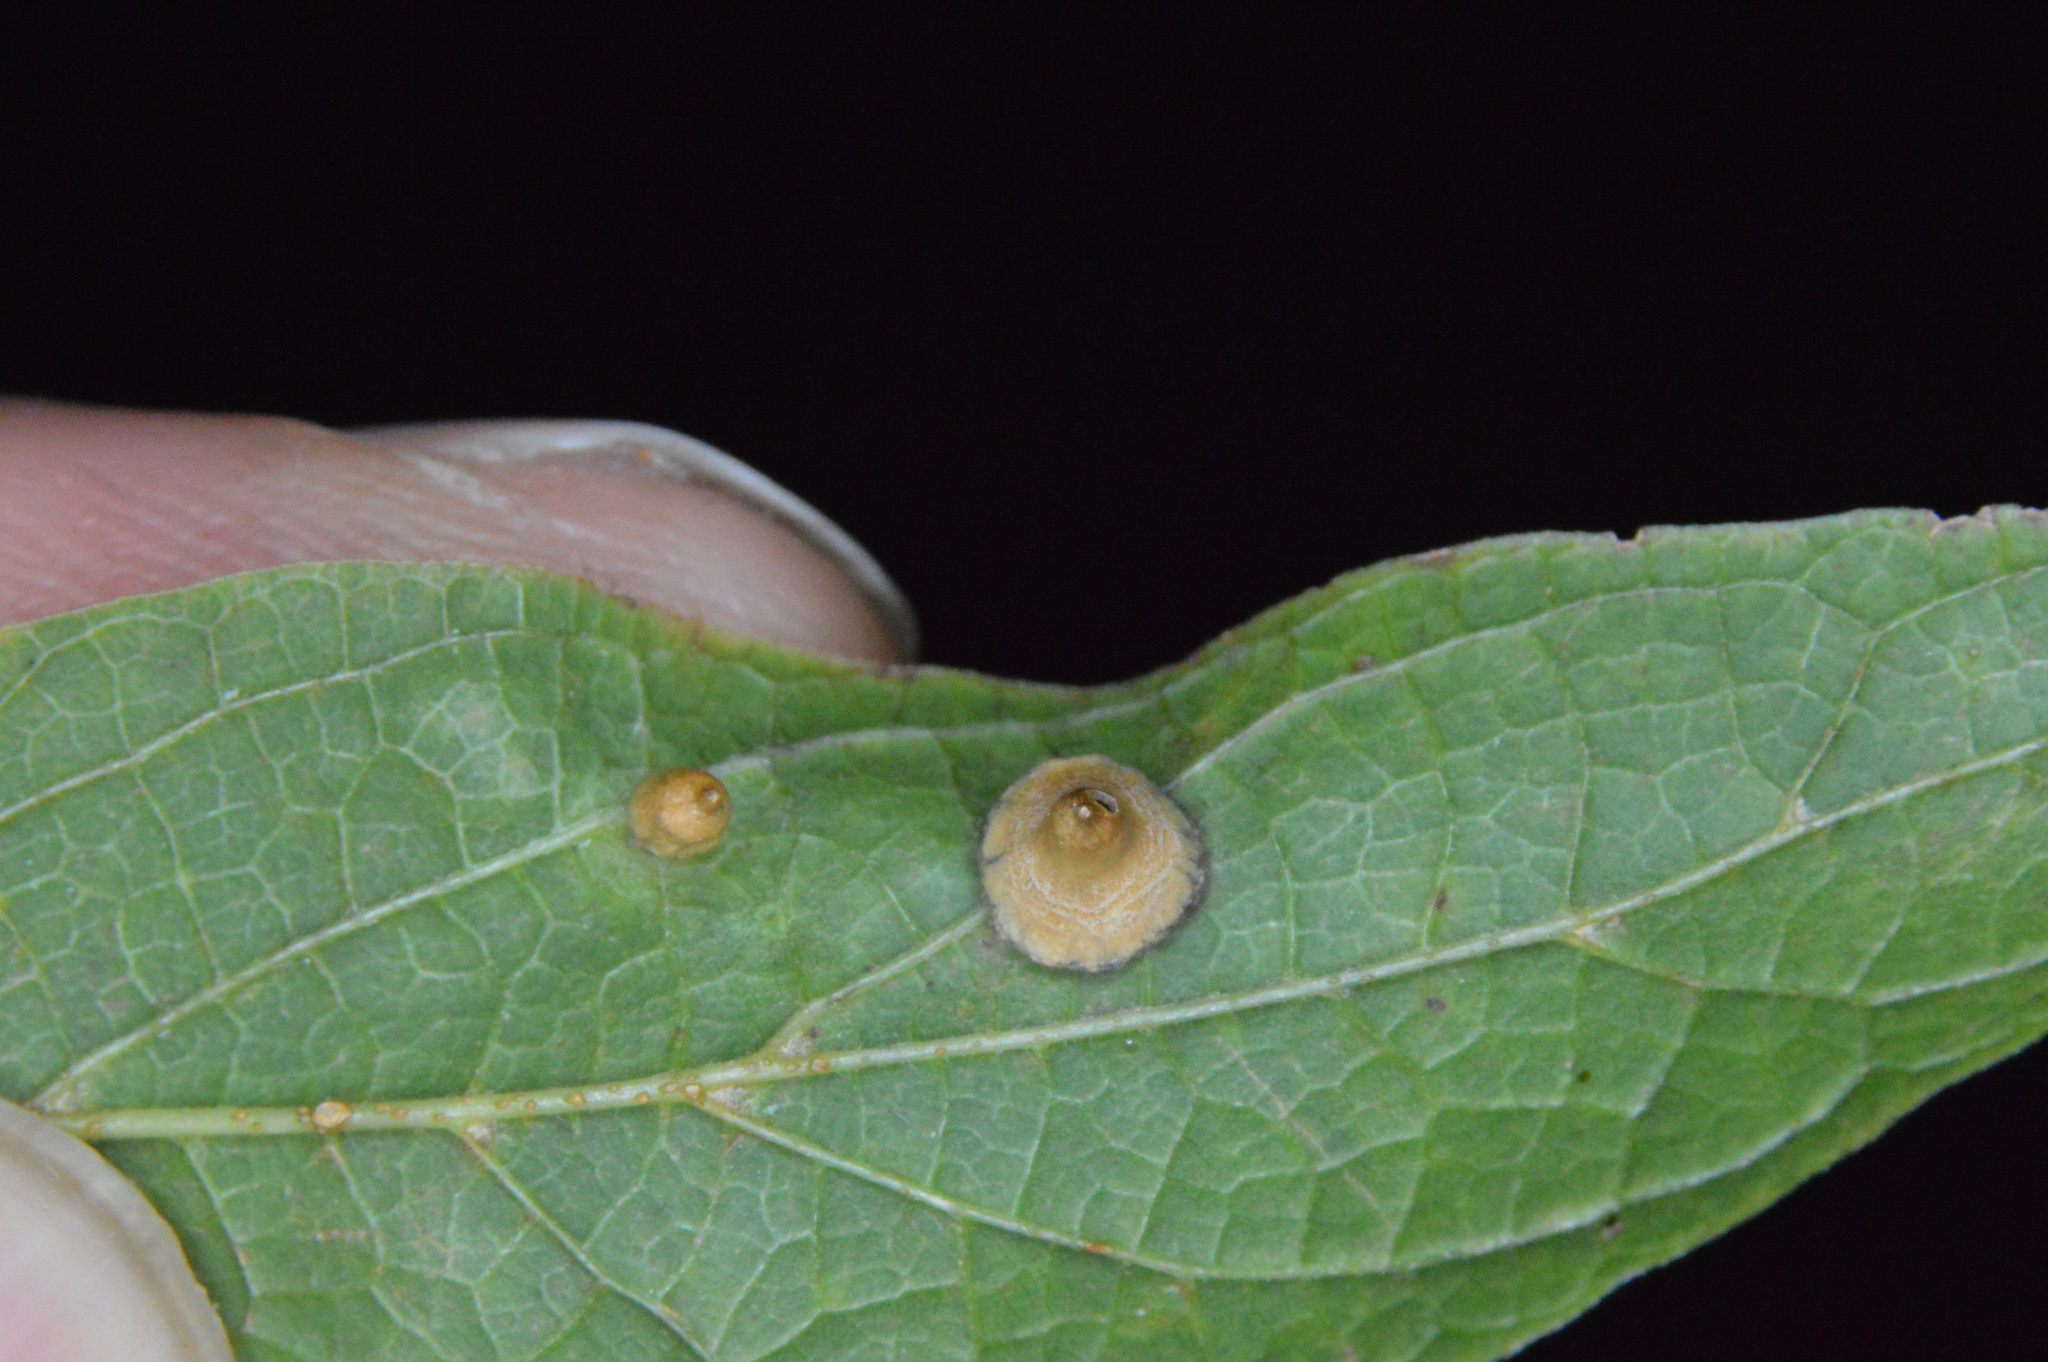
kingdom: Animalia
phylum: Arthropoda
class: Insecta
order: Diptera
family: Cecidomyiidae
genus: Celticecis
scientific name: Celticecis spiniformis
